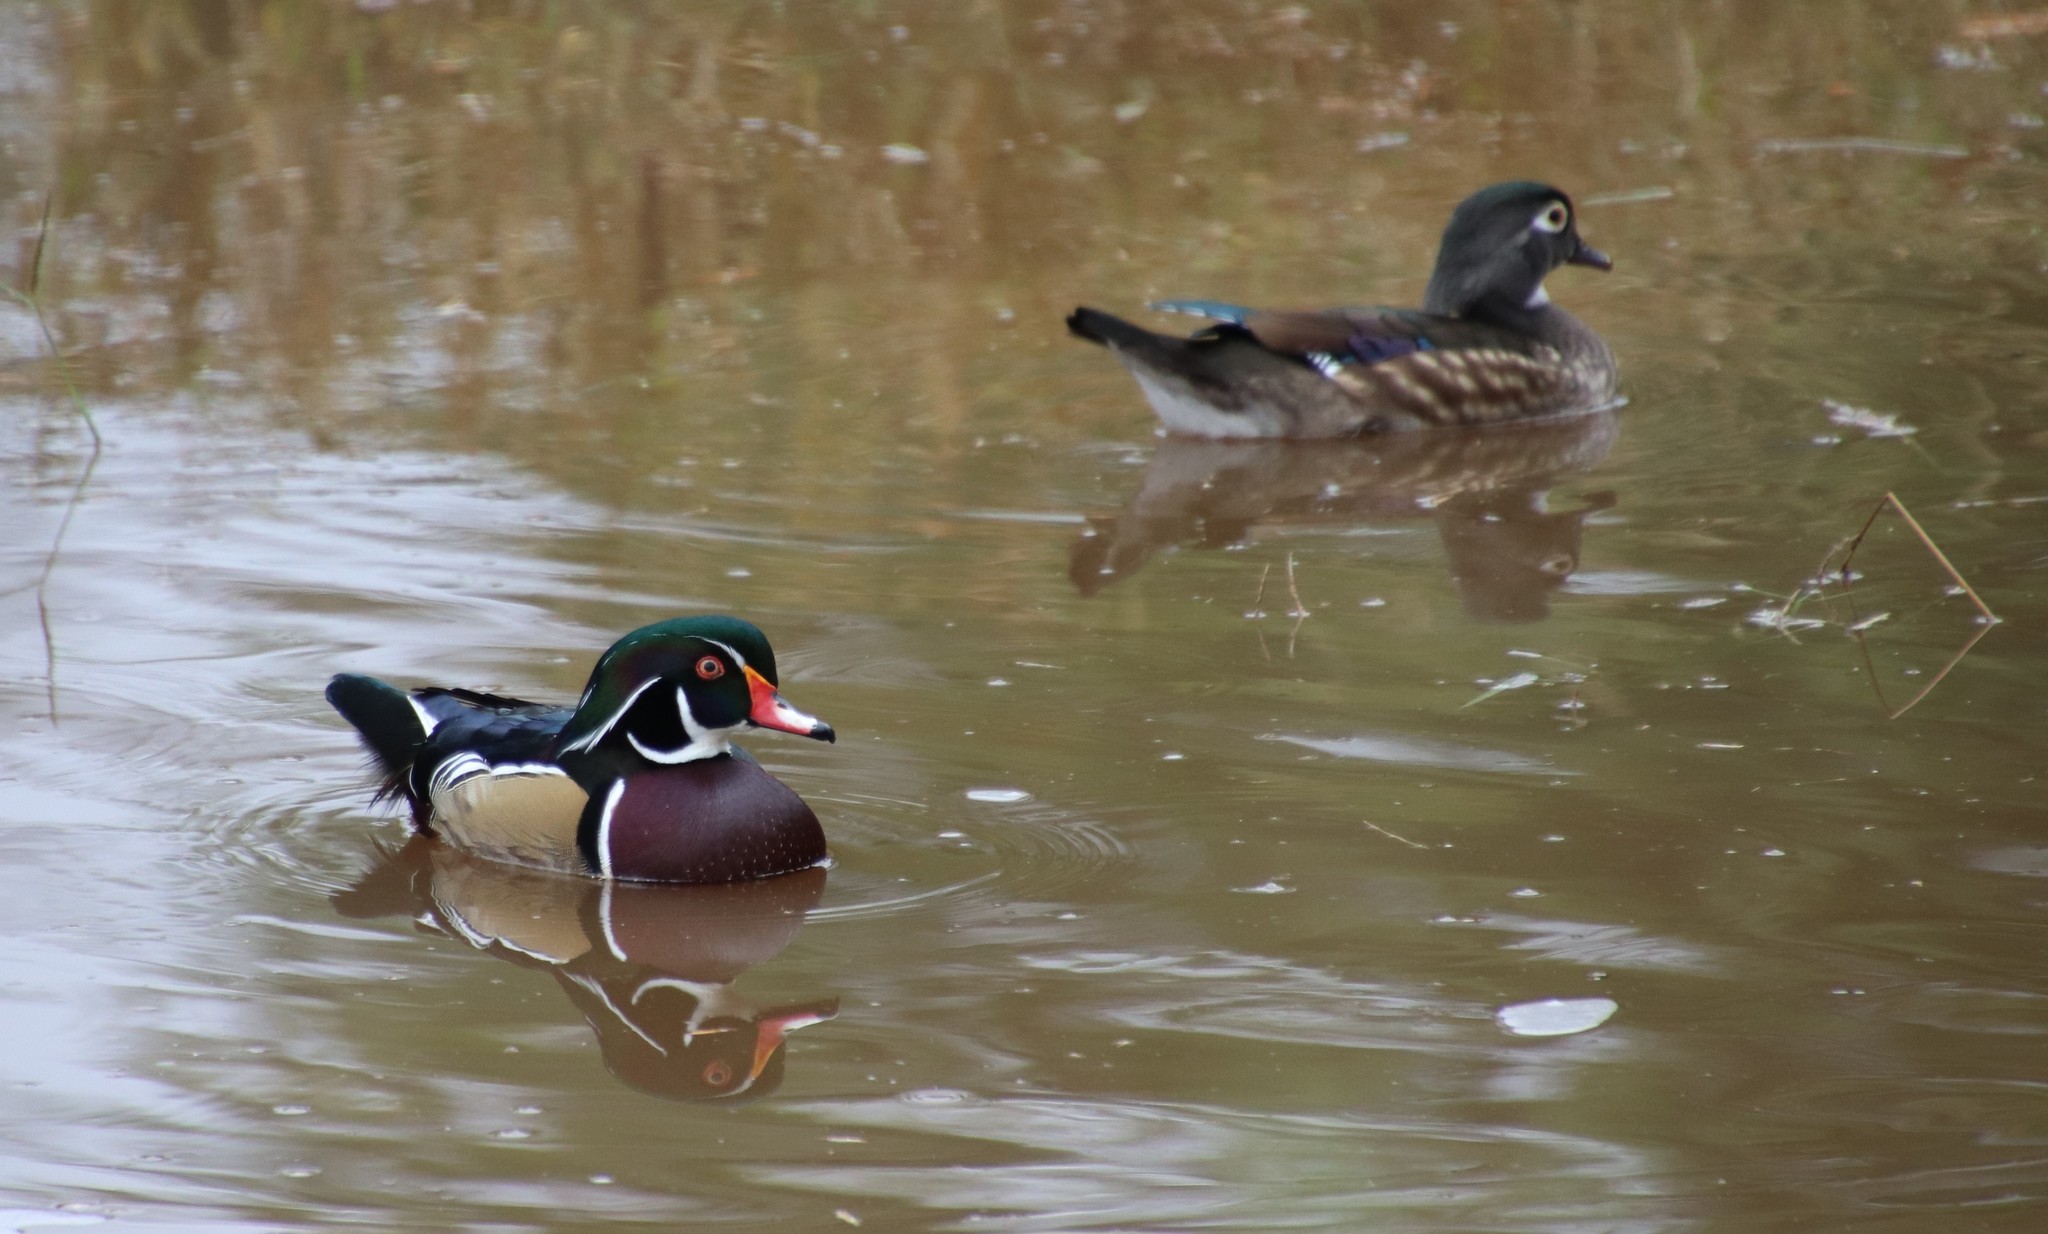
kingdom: Animalia
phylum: Chordata
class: Aves
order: Anseriformes
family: Anatidae
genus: Aix
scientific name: Aix sponsa
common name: Wood duck
